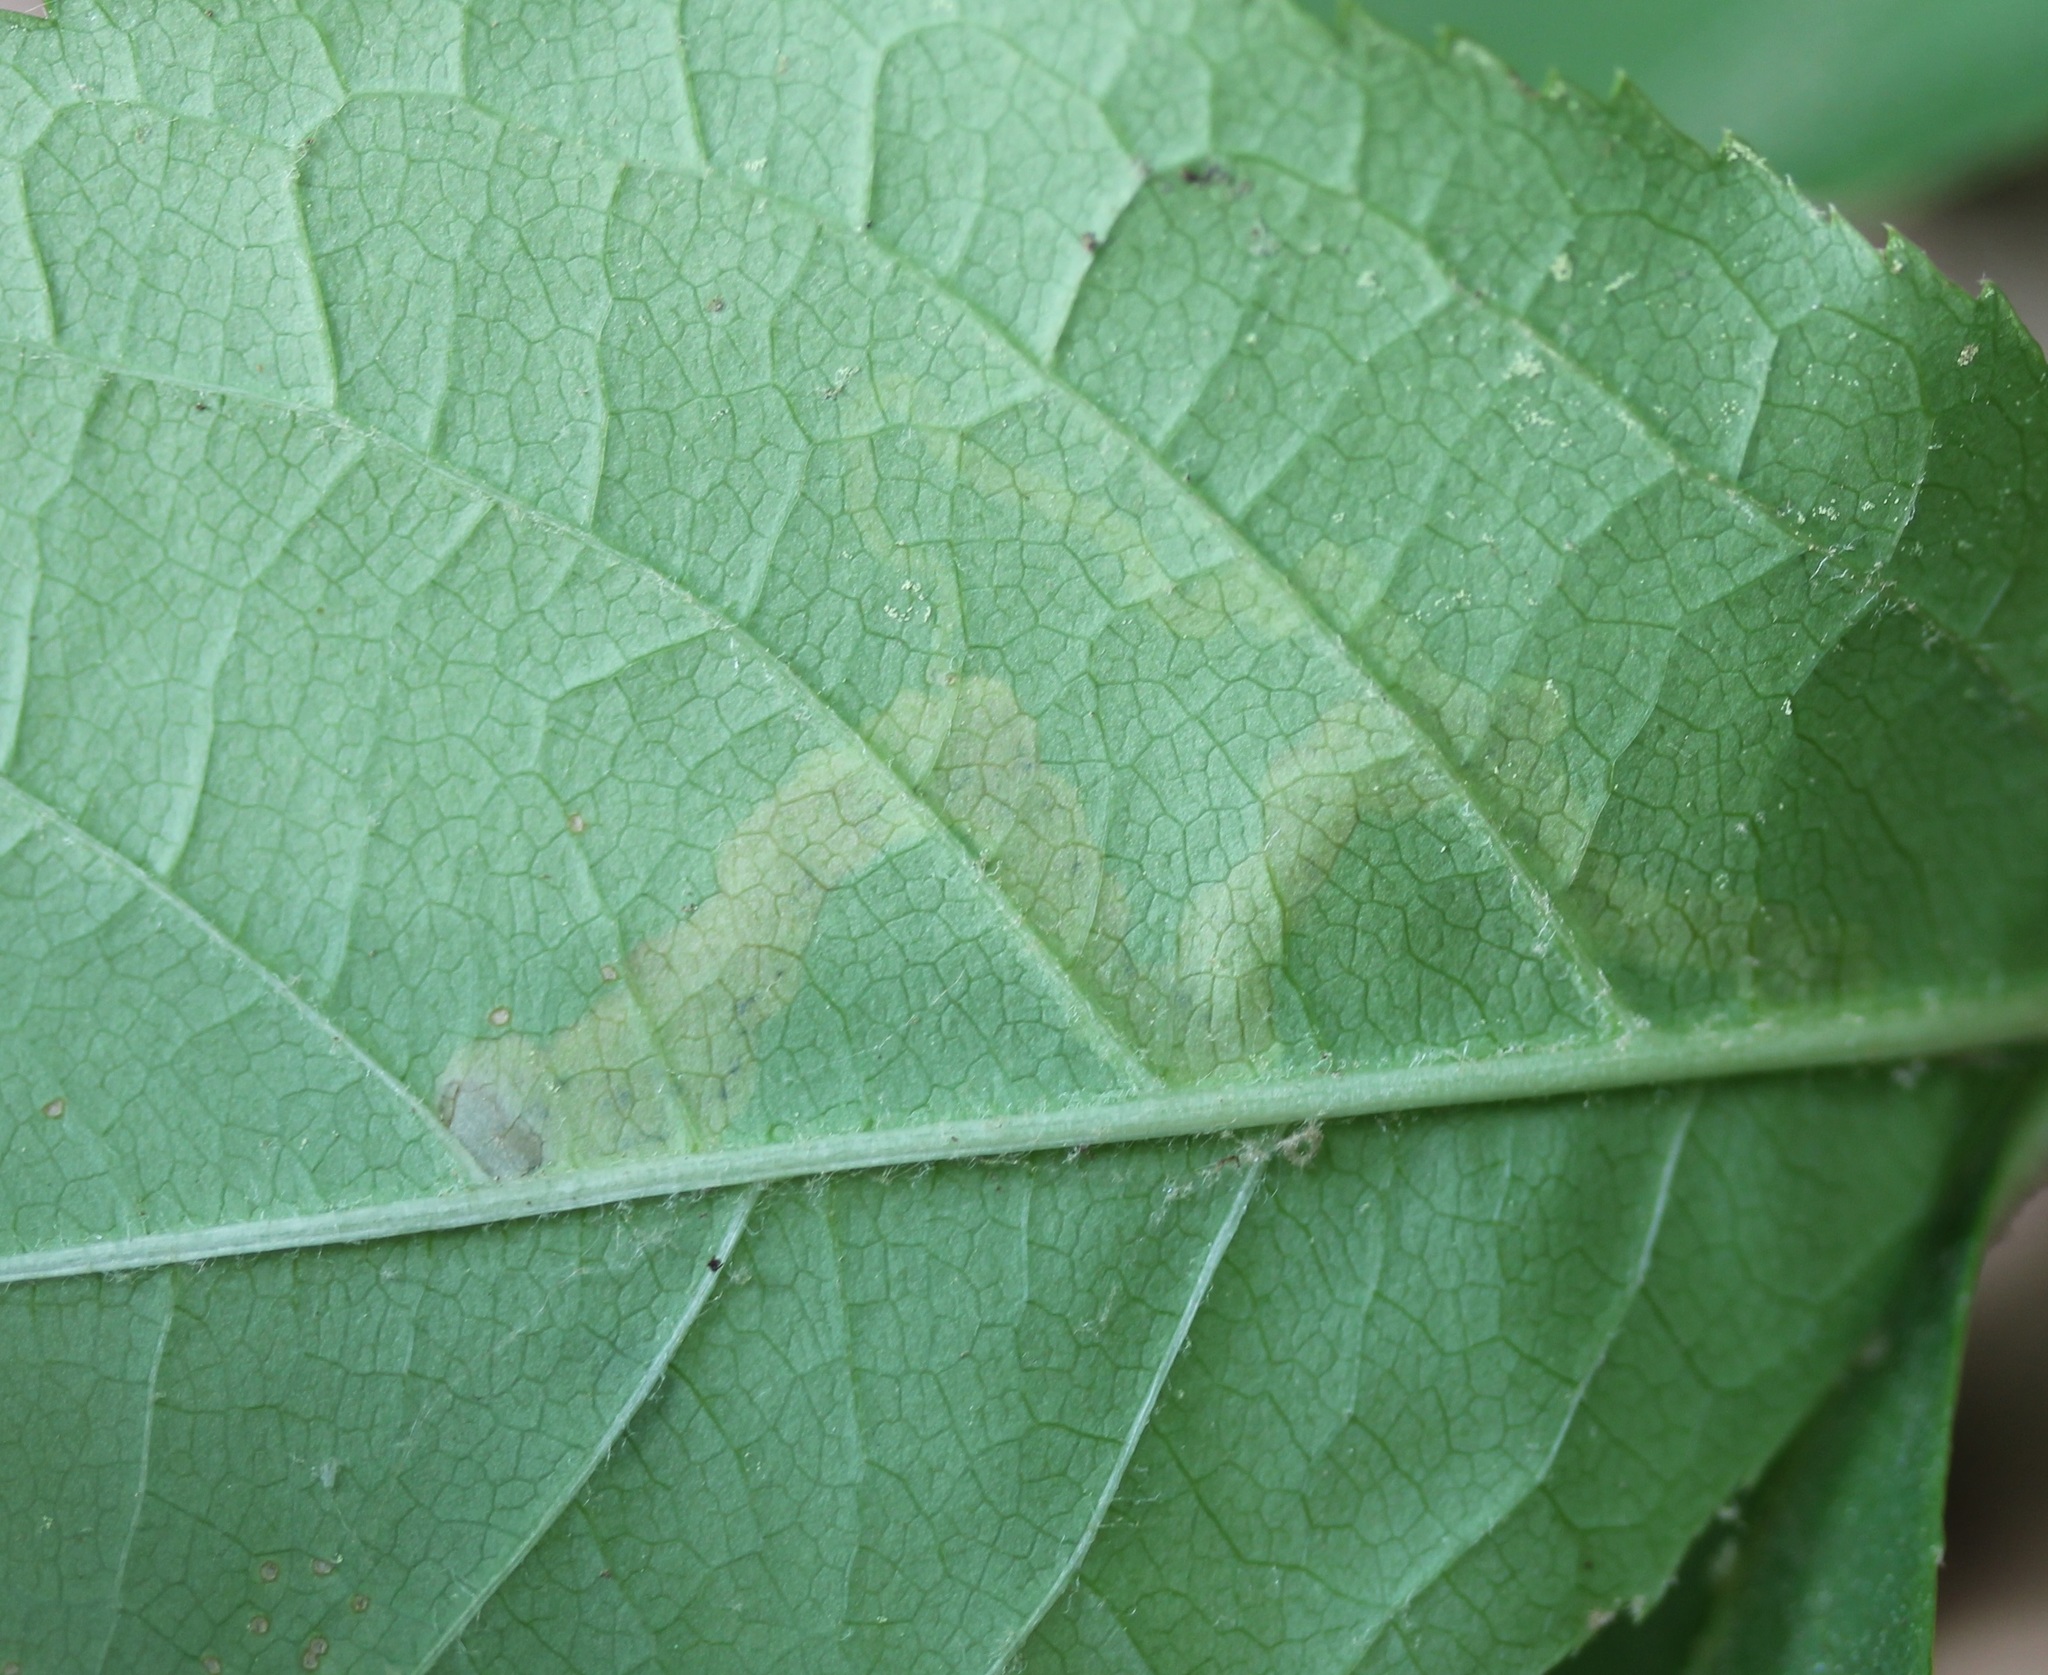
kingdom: Animalia
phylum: Arthropoda
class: Insecta
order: Diptera
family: Agromyzidae
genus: Phytomyza
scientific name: Phytomyza aralivora
